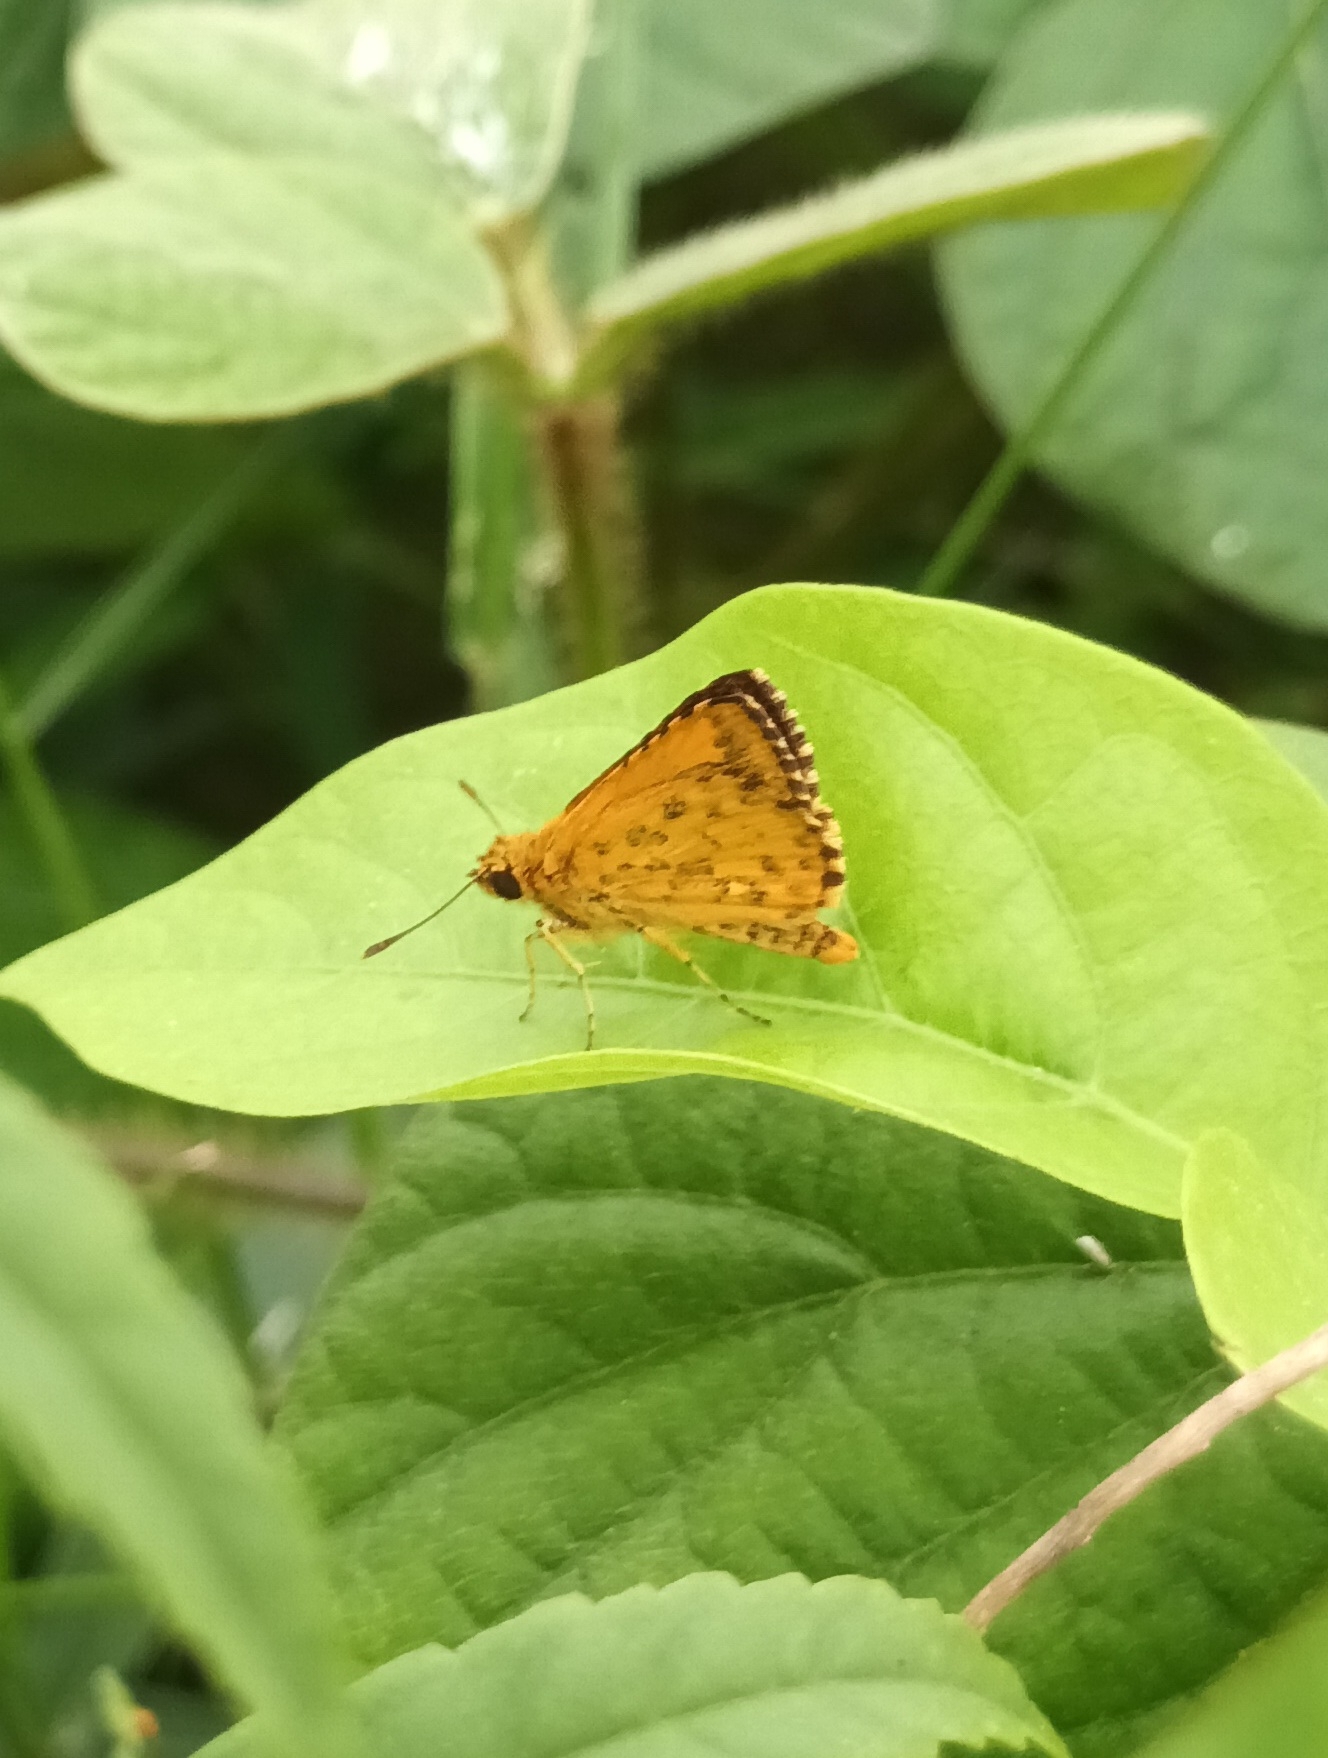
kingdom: Animalia
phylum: Arthropoda
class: Insecta
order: Lepidoptera
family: Hesperiidae
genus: Ampittia
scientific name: Ampittia dioscorides
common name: Common bush hopper
